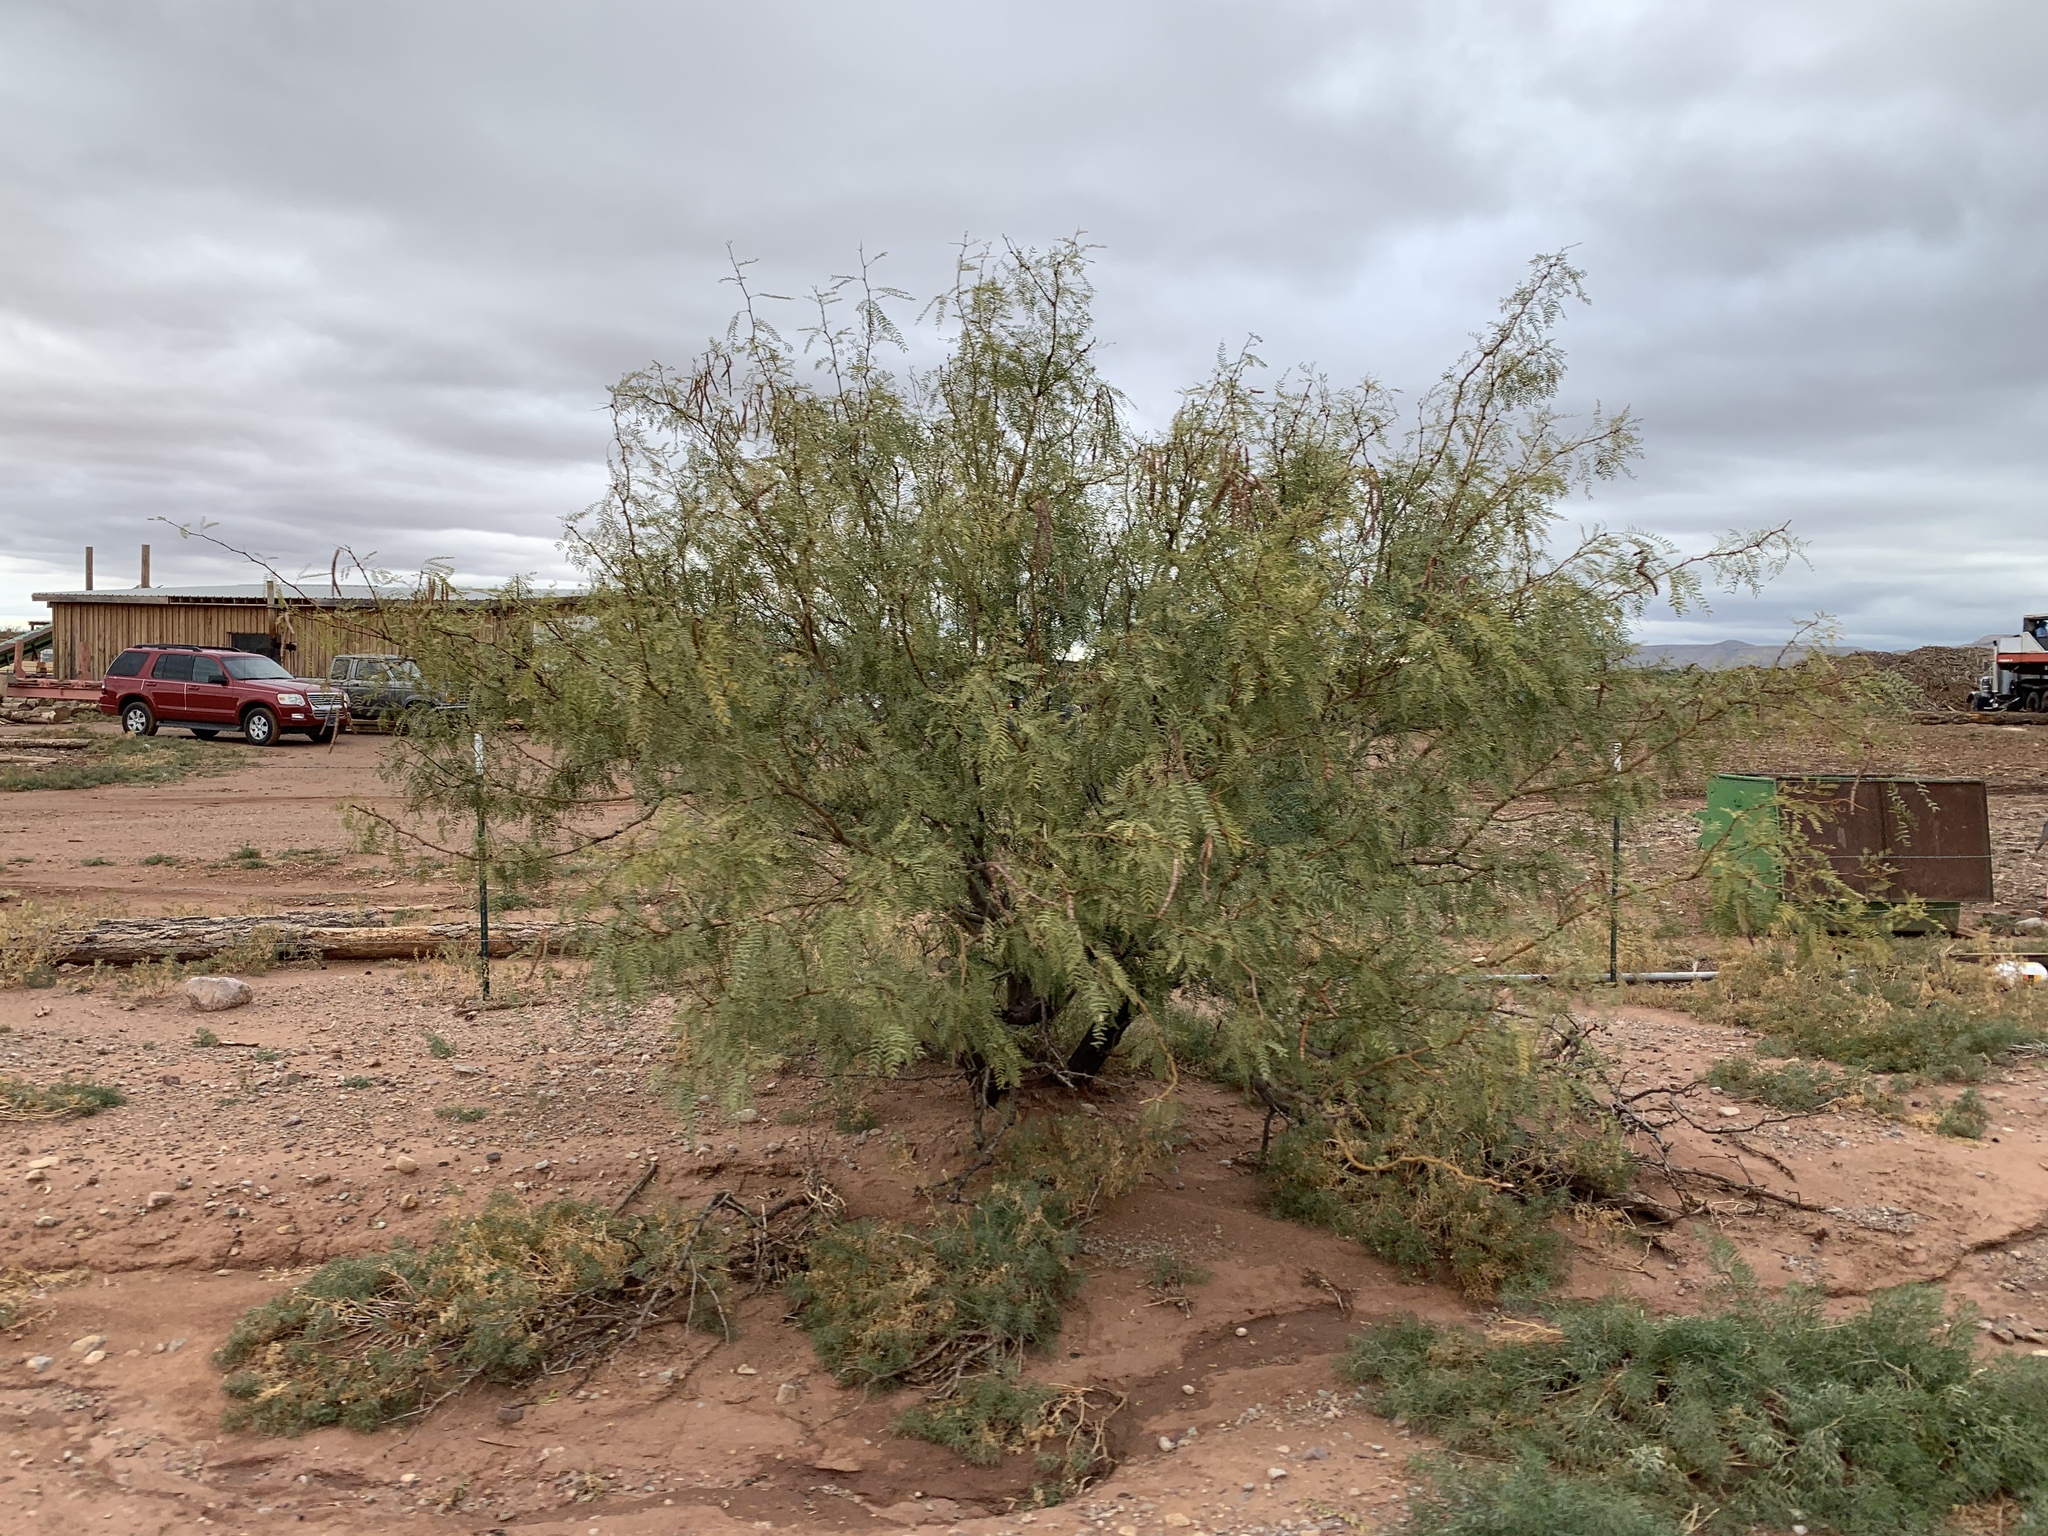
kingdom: Plantae
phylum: Tracheophyta
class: Magnoliopsida
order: Fabales
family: Fabaceae
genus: Prosopis
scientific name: Prosopis glandulosa
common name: Honey mesquite
